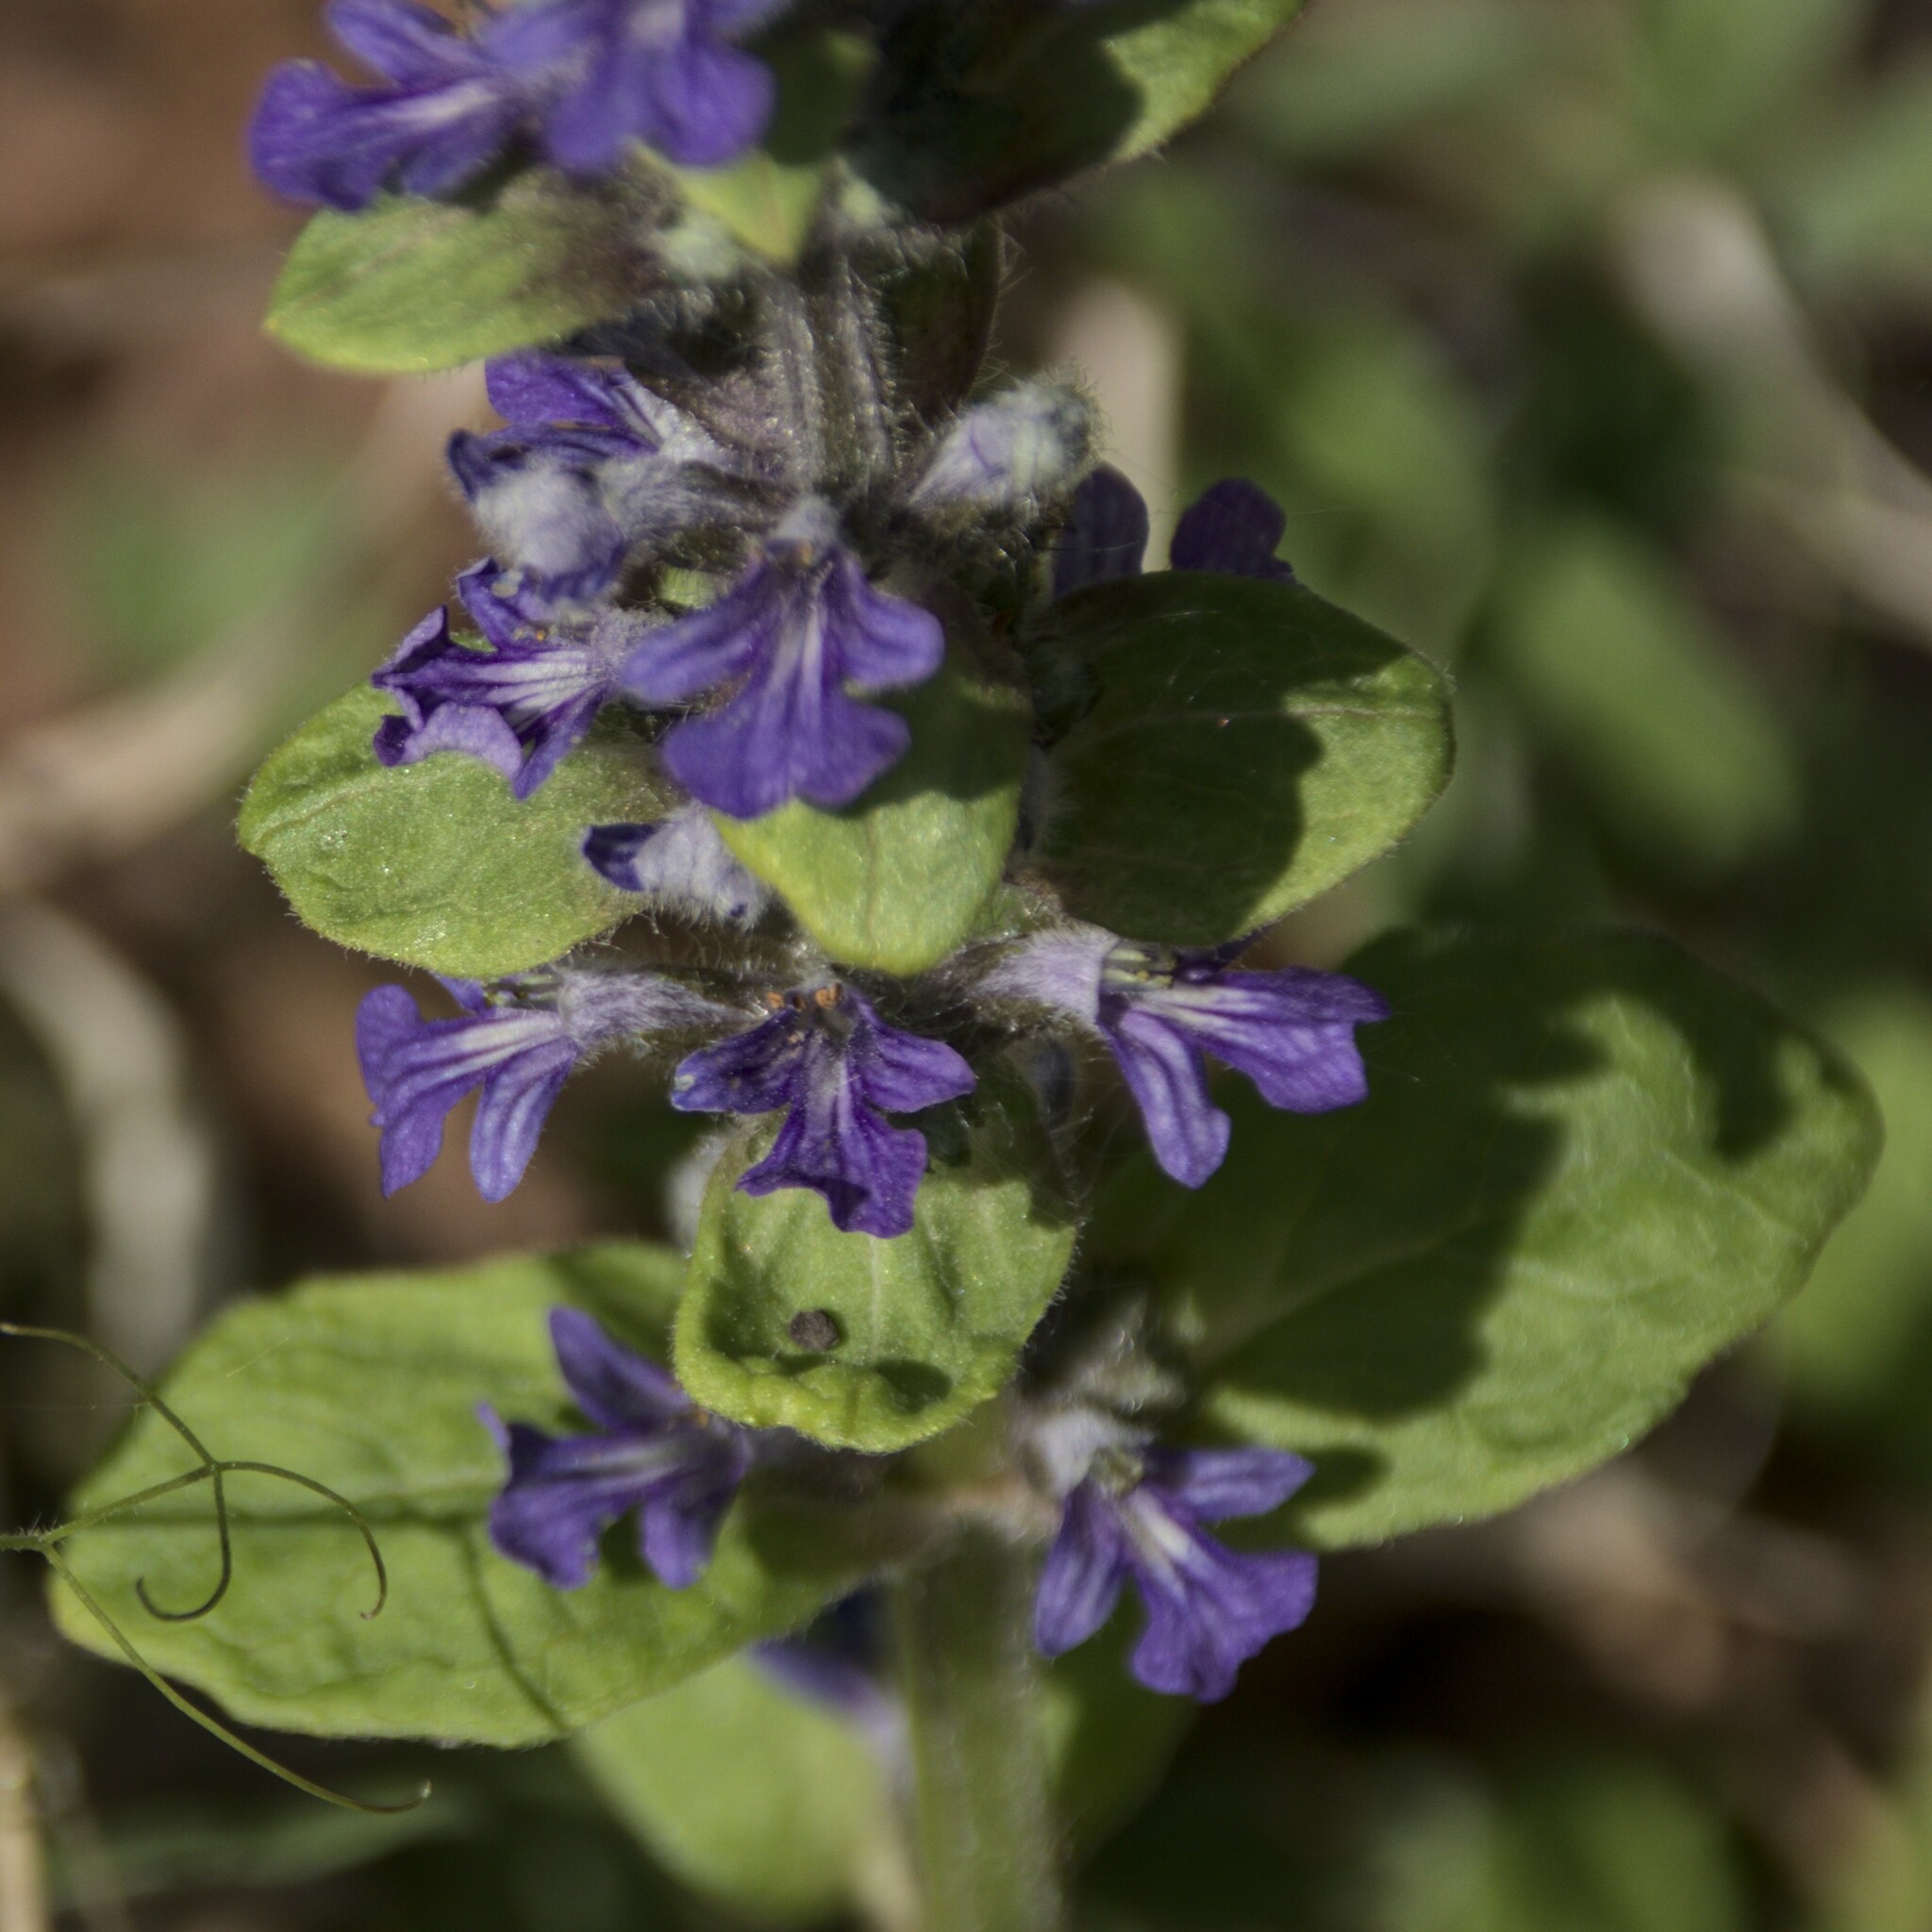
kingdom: Plantae
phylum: Tracheophyta
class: Magnoliopsida
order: Lamiales
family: Lamiaceae
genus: Ajuga
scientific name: Ajuga reptans
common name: Bugle
